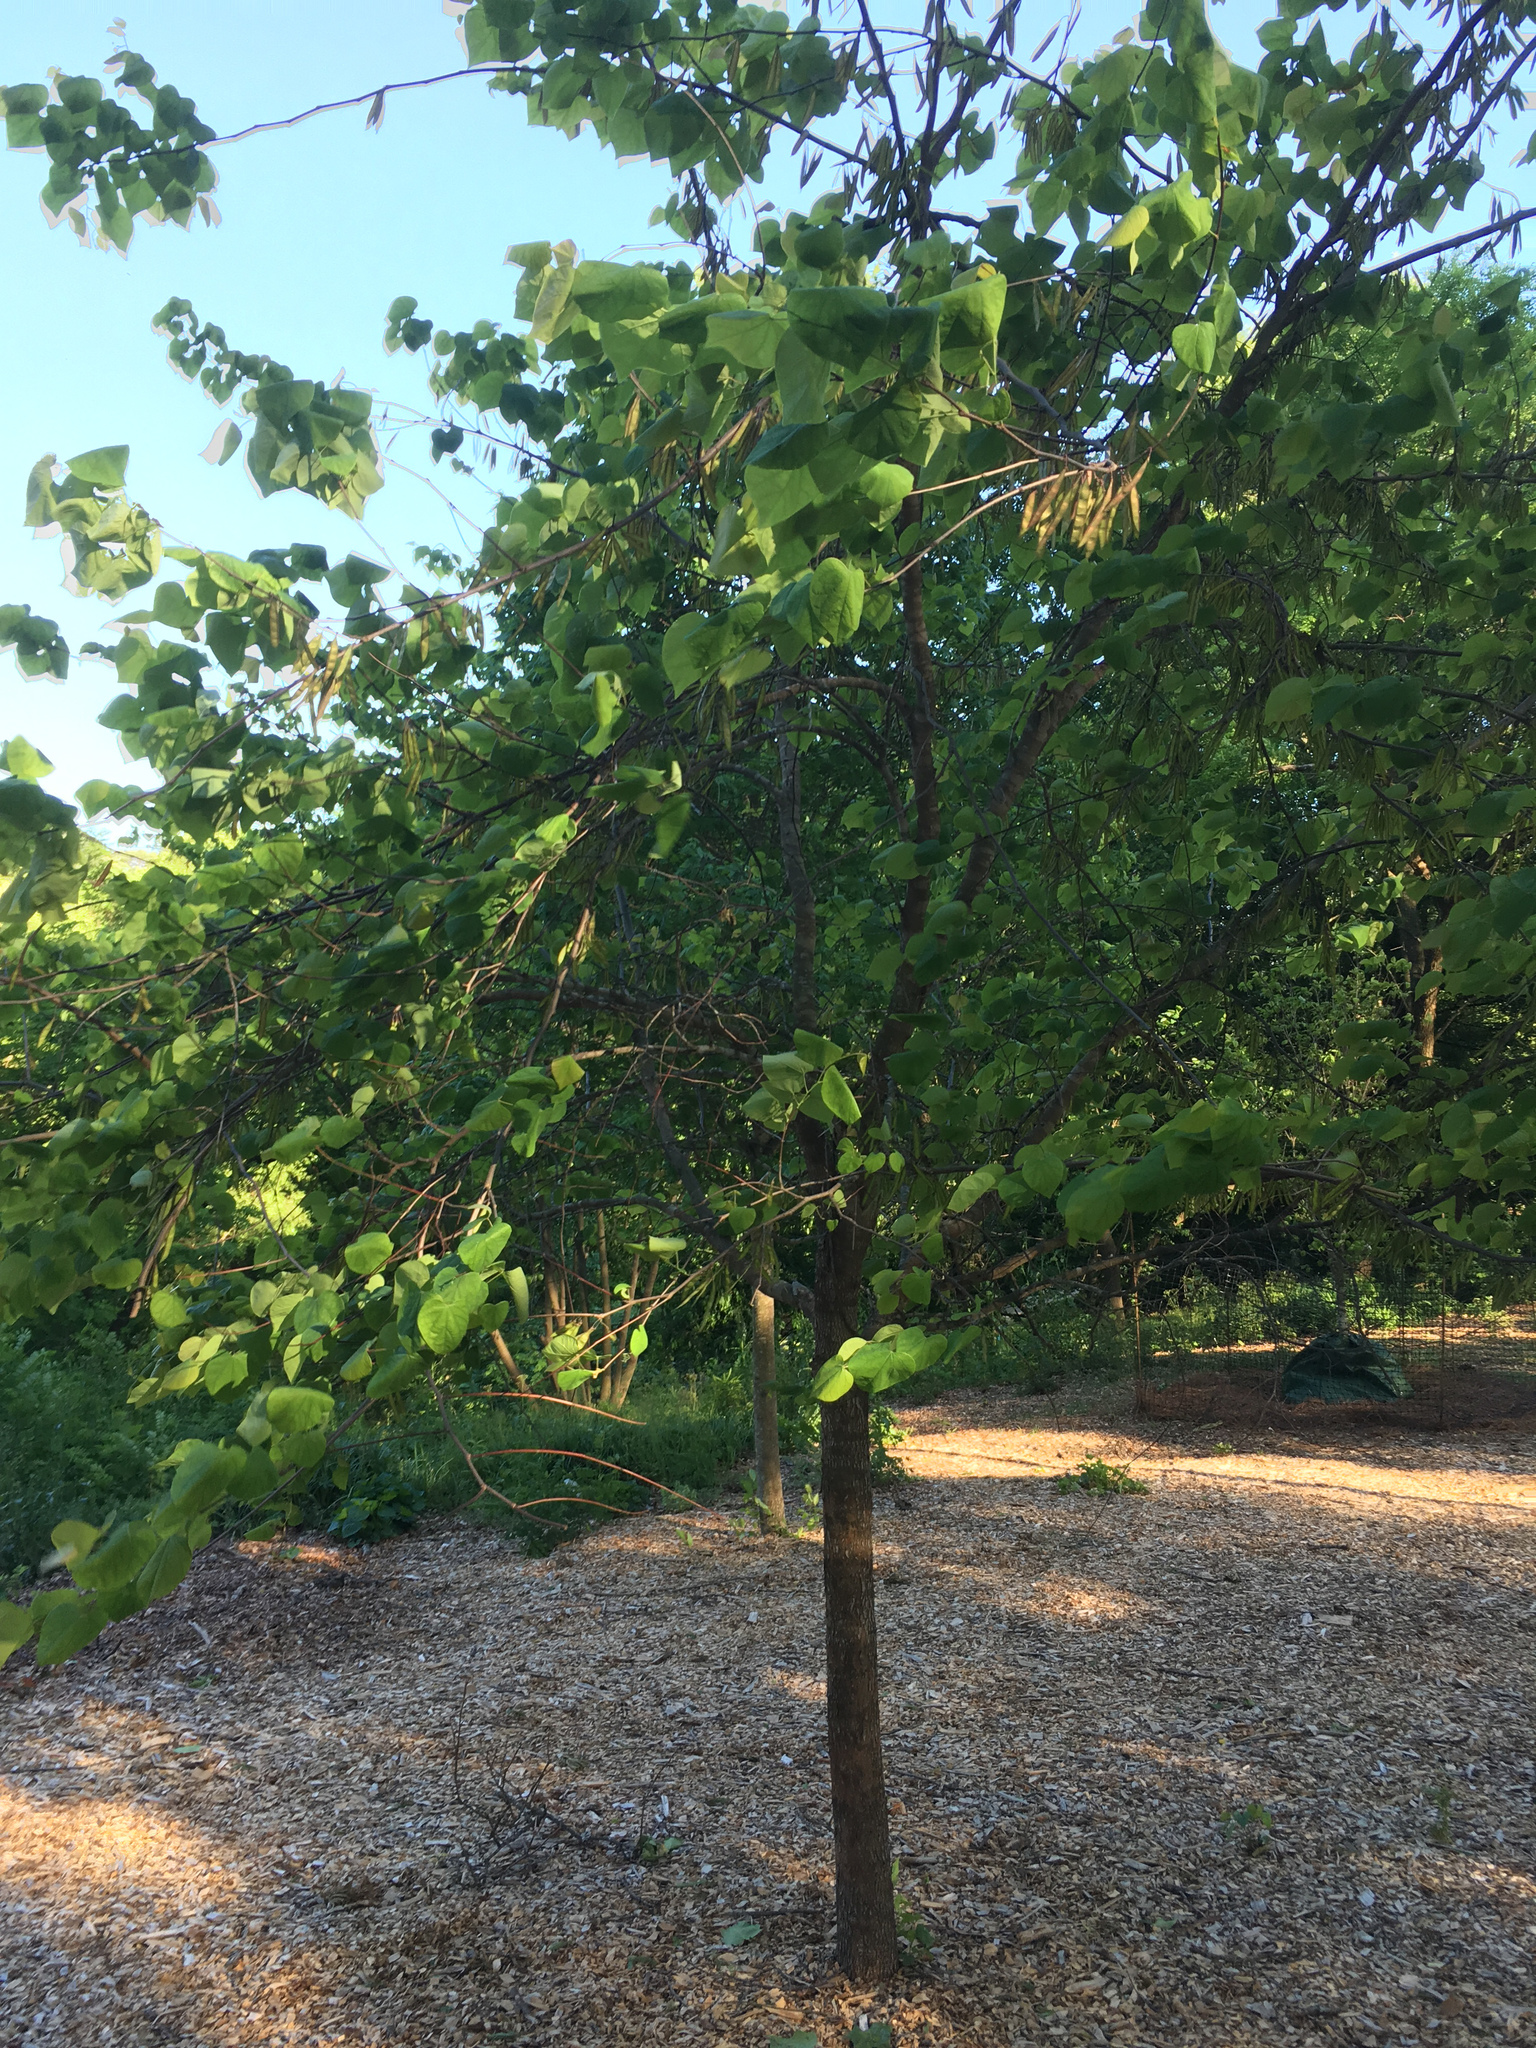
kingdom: Plantae
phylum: Tracheophyta
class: Magnoliopsida
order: Fabales
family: Fabaceae
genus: Cercis
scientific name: Cercis canadensis
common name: Eastern redbud
